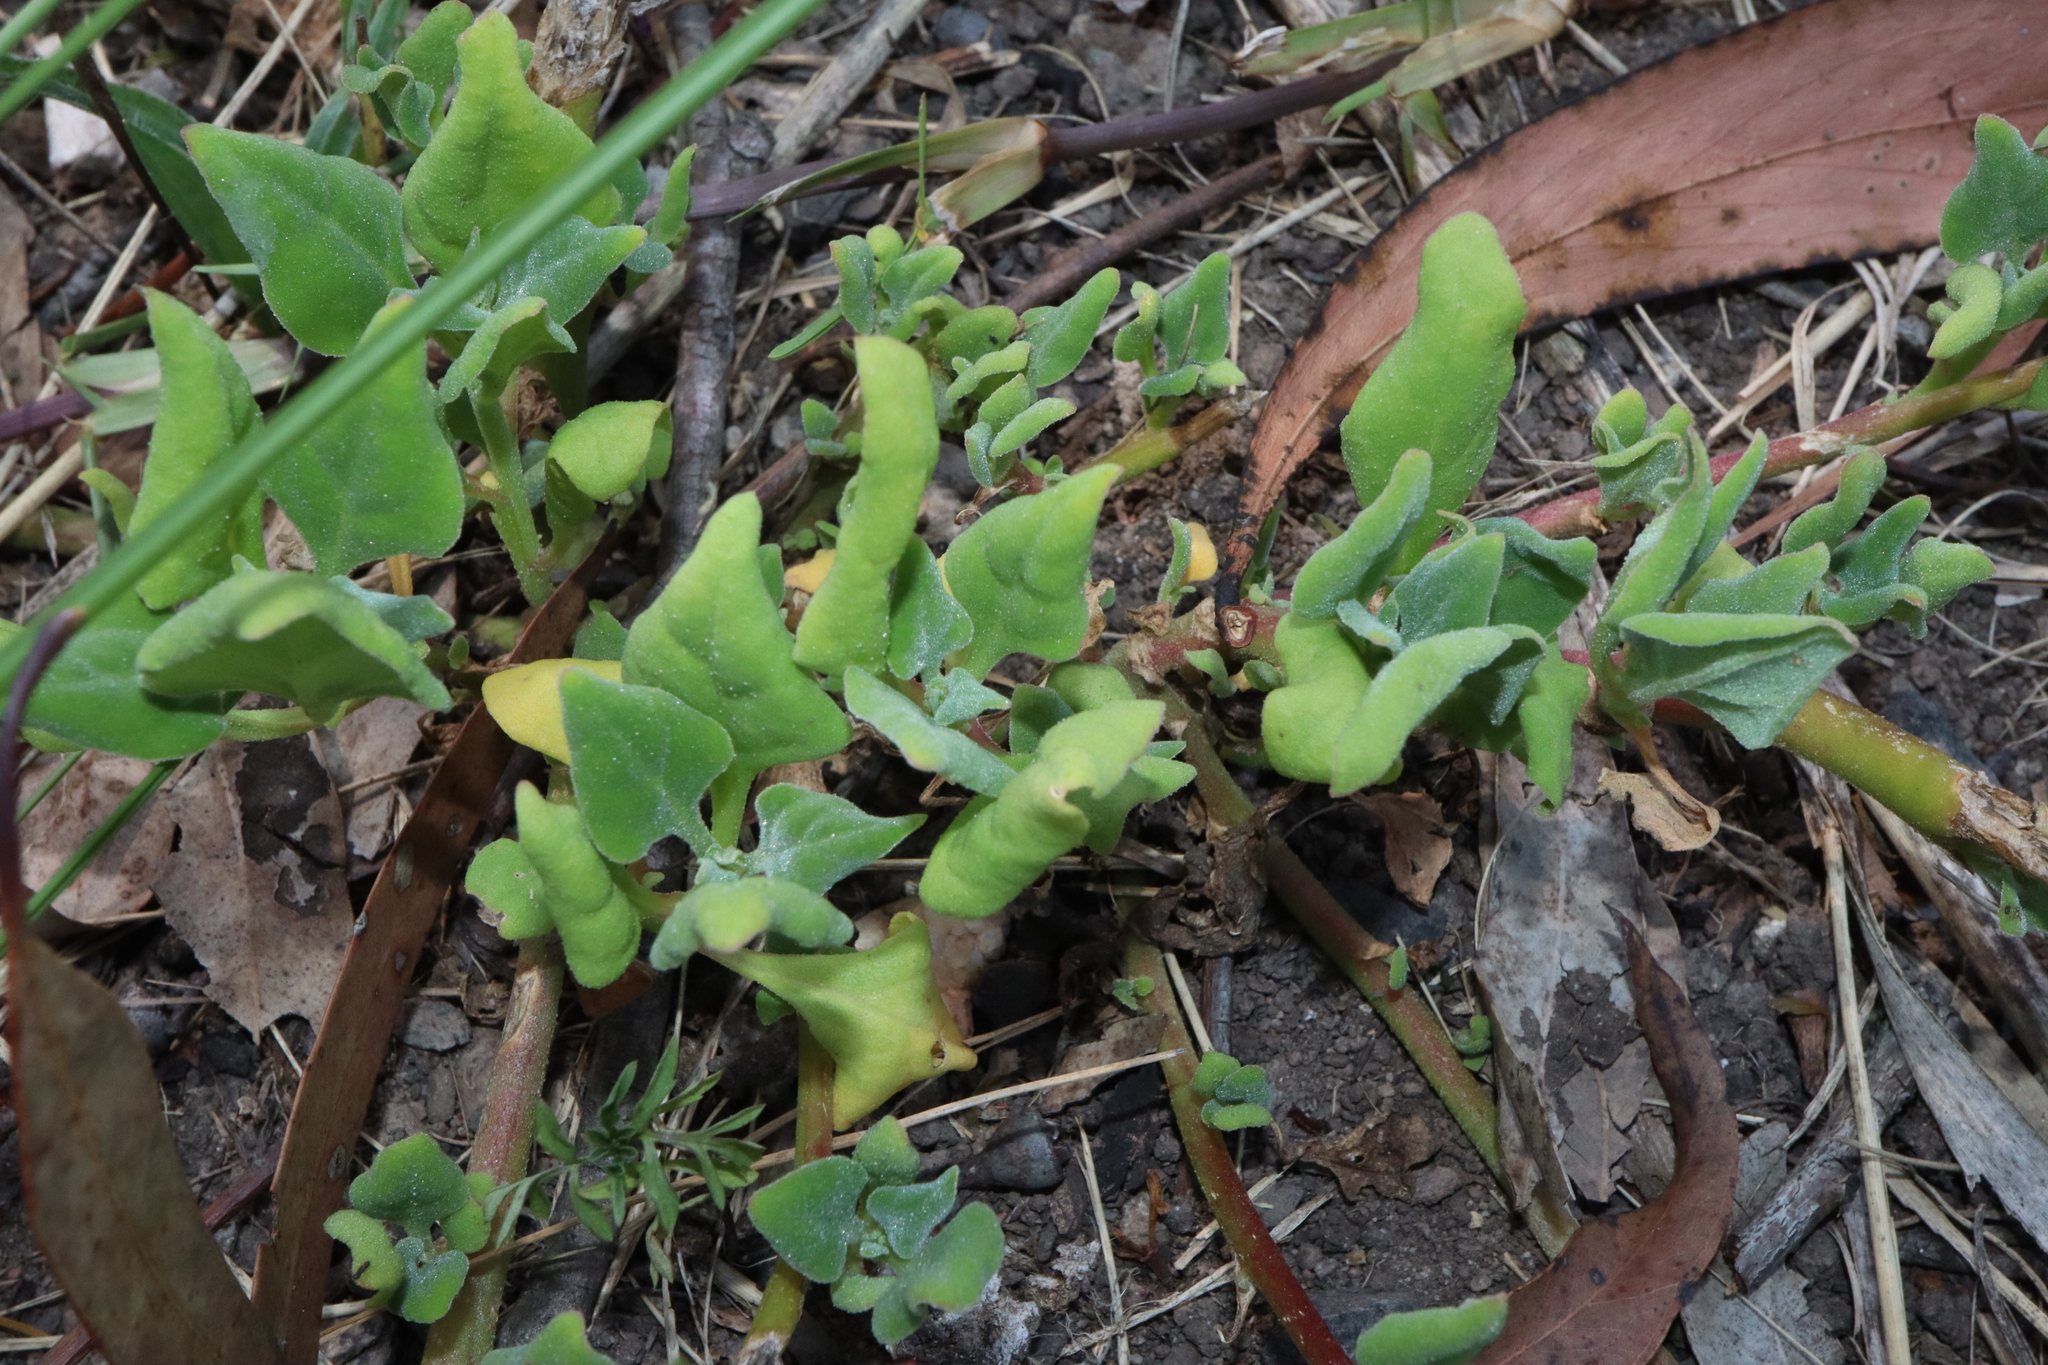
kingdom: Plantae
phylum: Tracheophyta
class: Magnoliopsida
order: Caryophyllales
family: Aizoaceae
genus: Tetragonia
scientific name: Tetragonia tetragonoides
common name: New zealand-spinach
